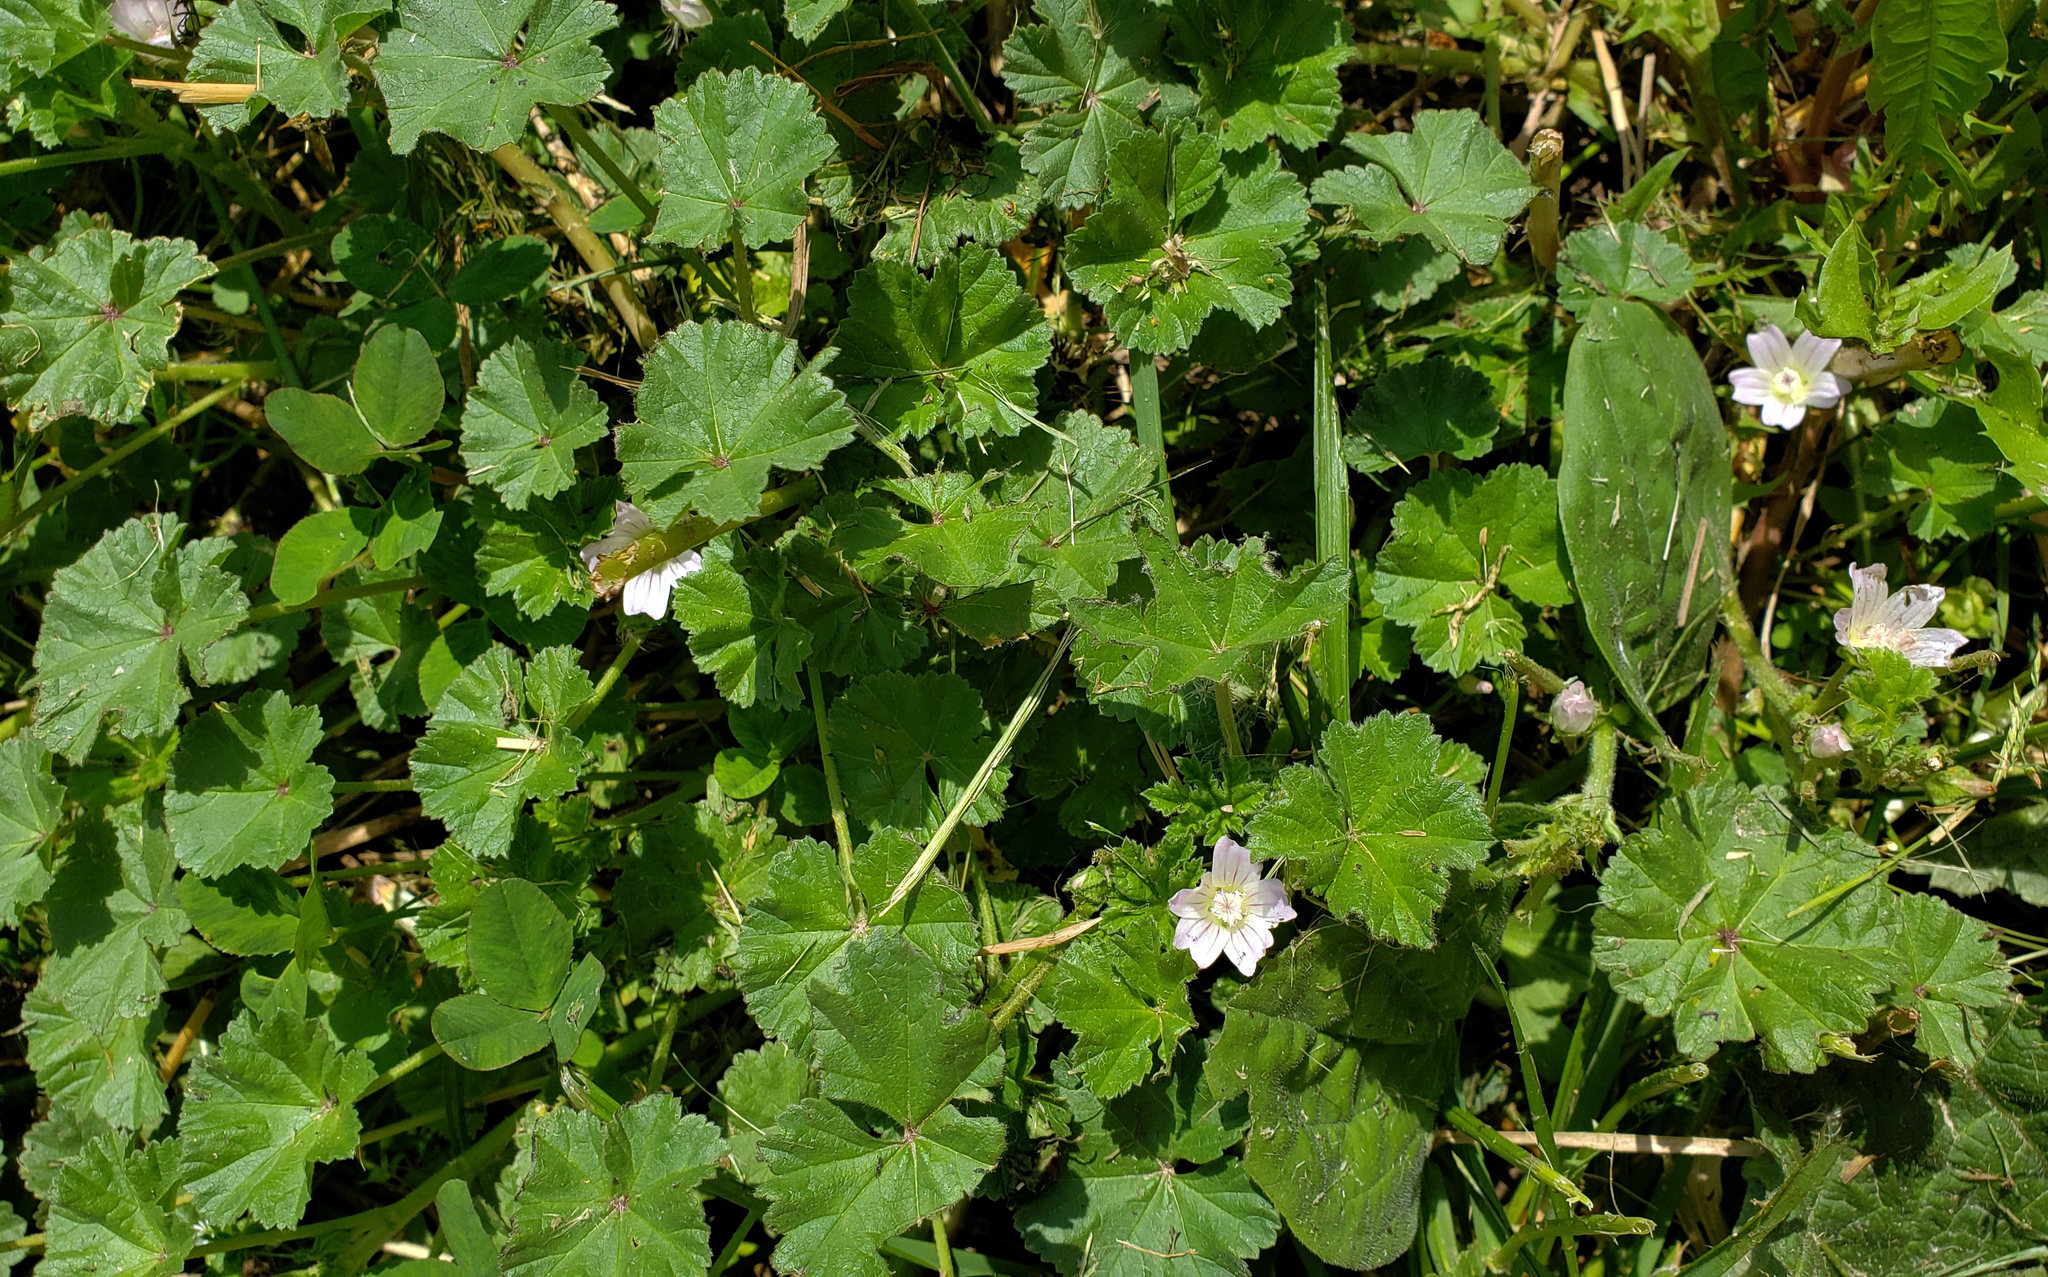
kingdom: Plantae
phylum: Tracheophyta
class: Magnoliopsida
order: Malvales
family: Malvaceae
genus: Malva
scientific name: Malva neglecta
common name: Common mallow
